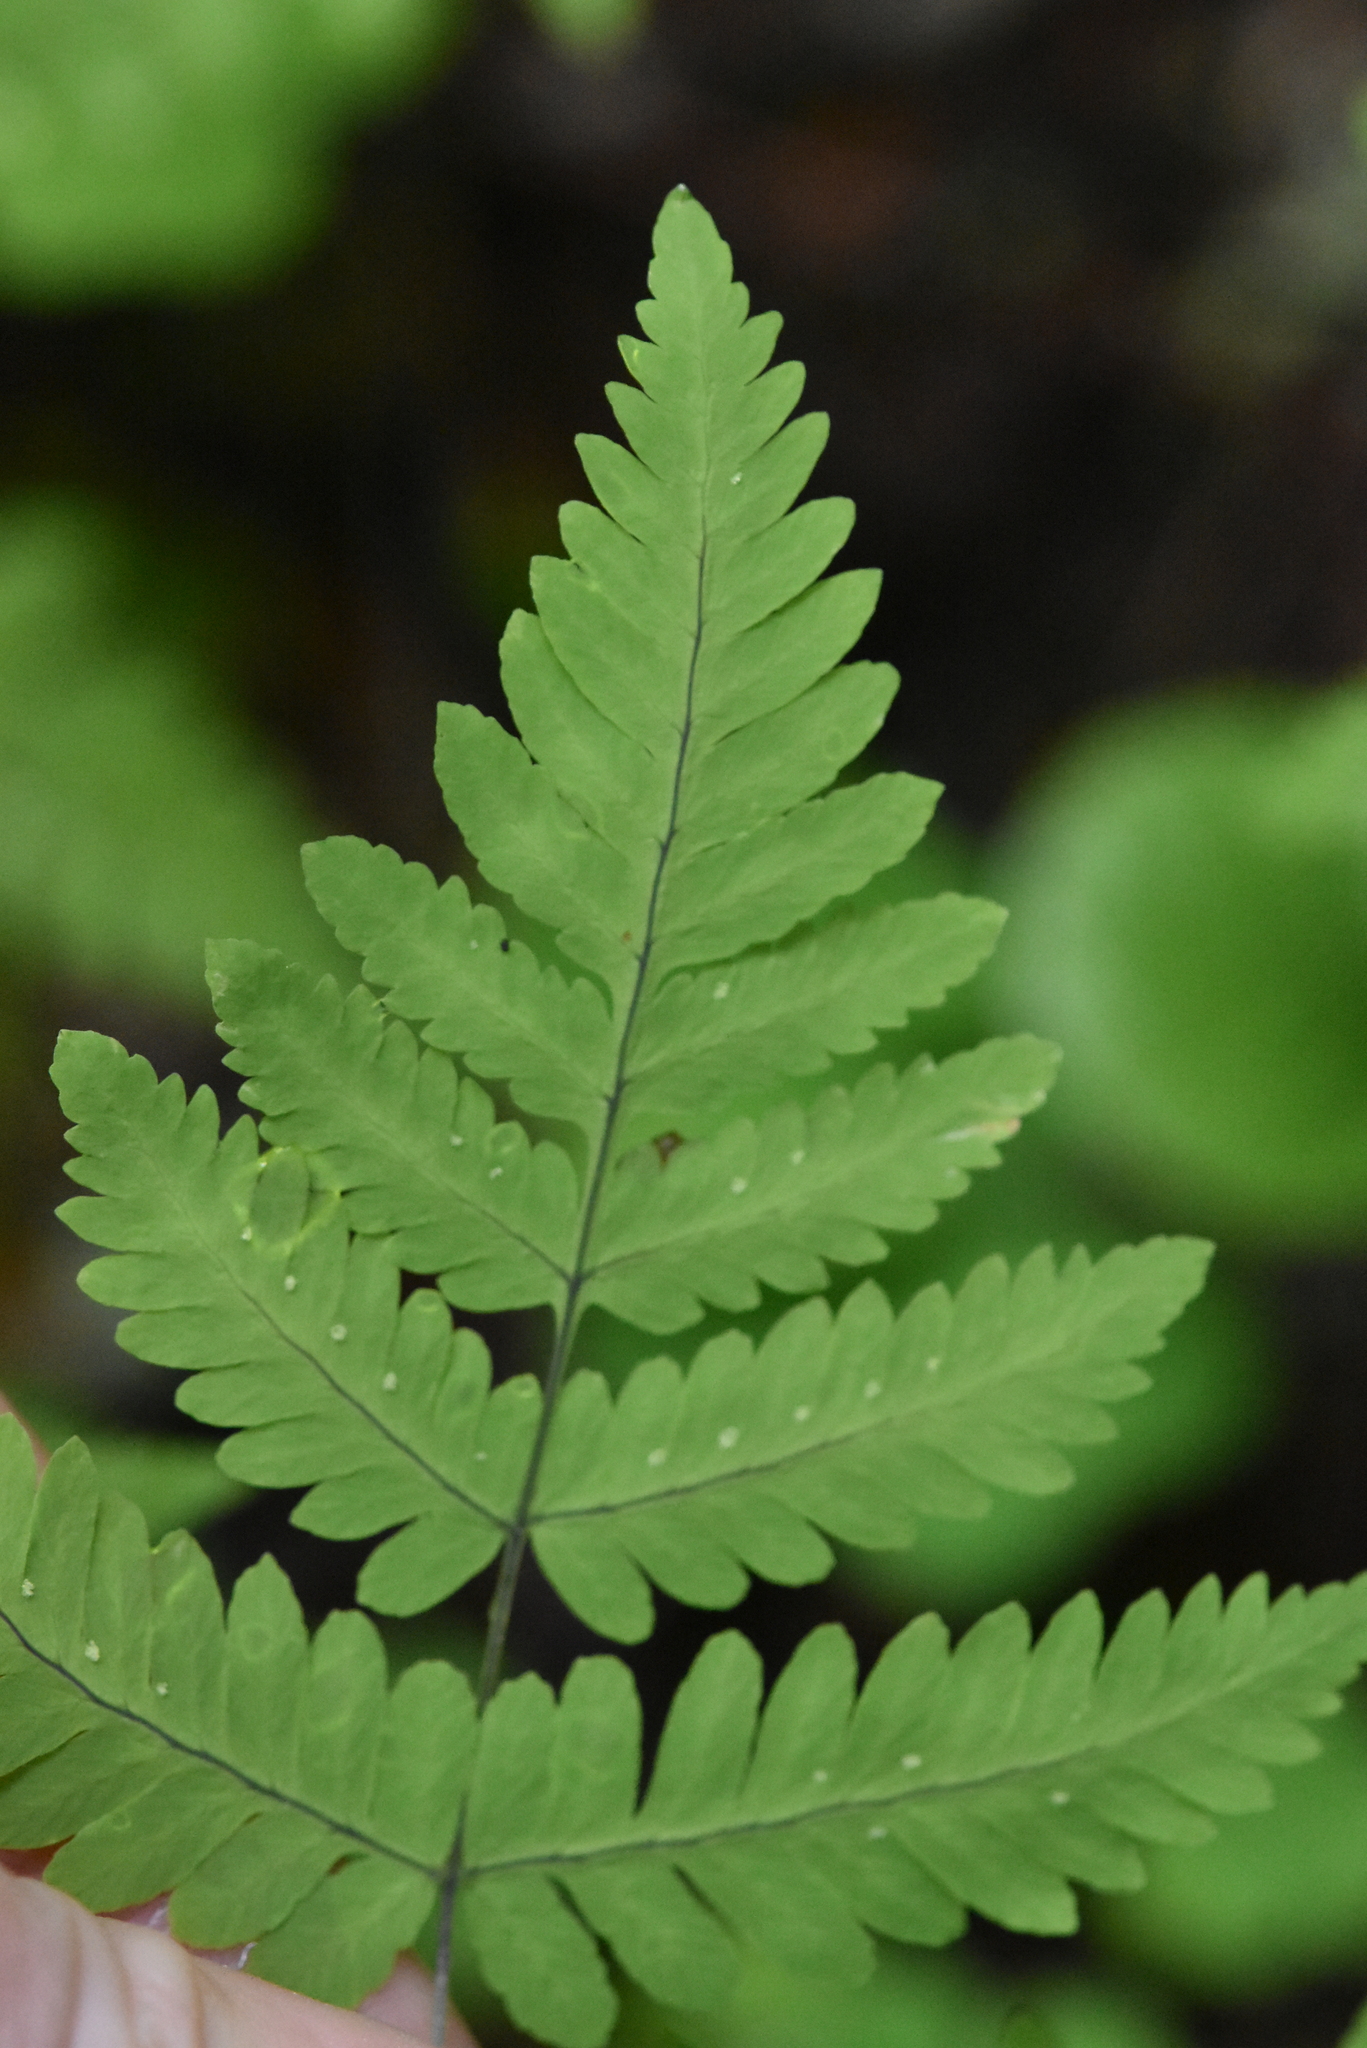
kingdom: Plantae
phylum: Tracheophyta
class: Polypodiopsida
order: Polypodiales
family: Cystopteridaceae
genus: Gymnocarpium
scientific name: Gymnocarpium dryopteris
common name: Oak fern
